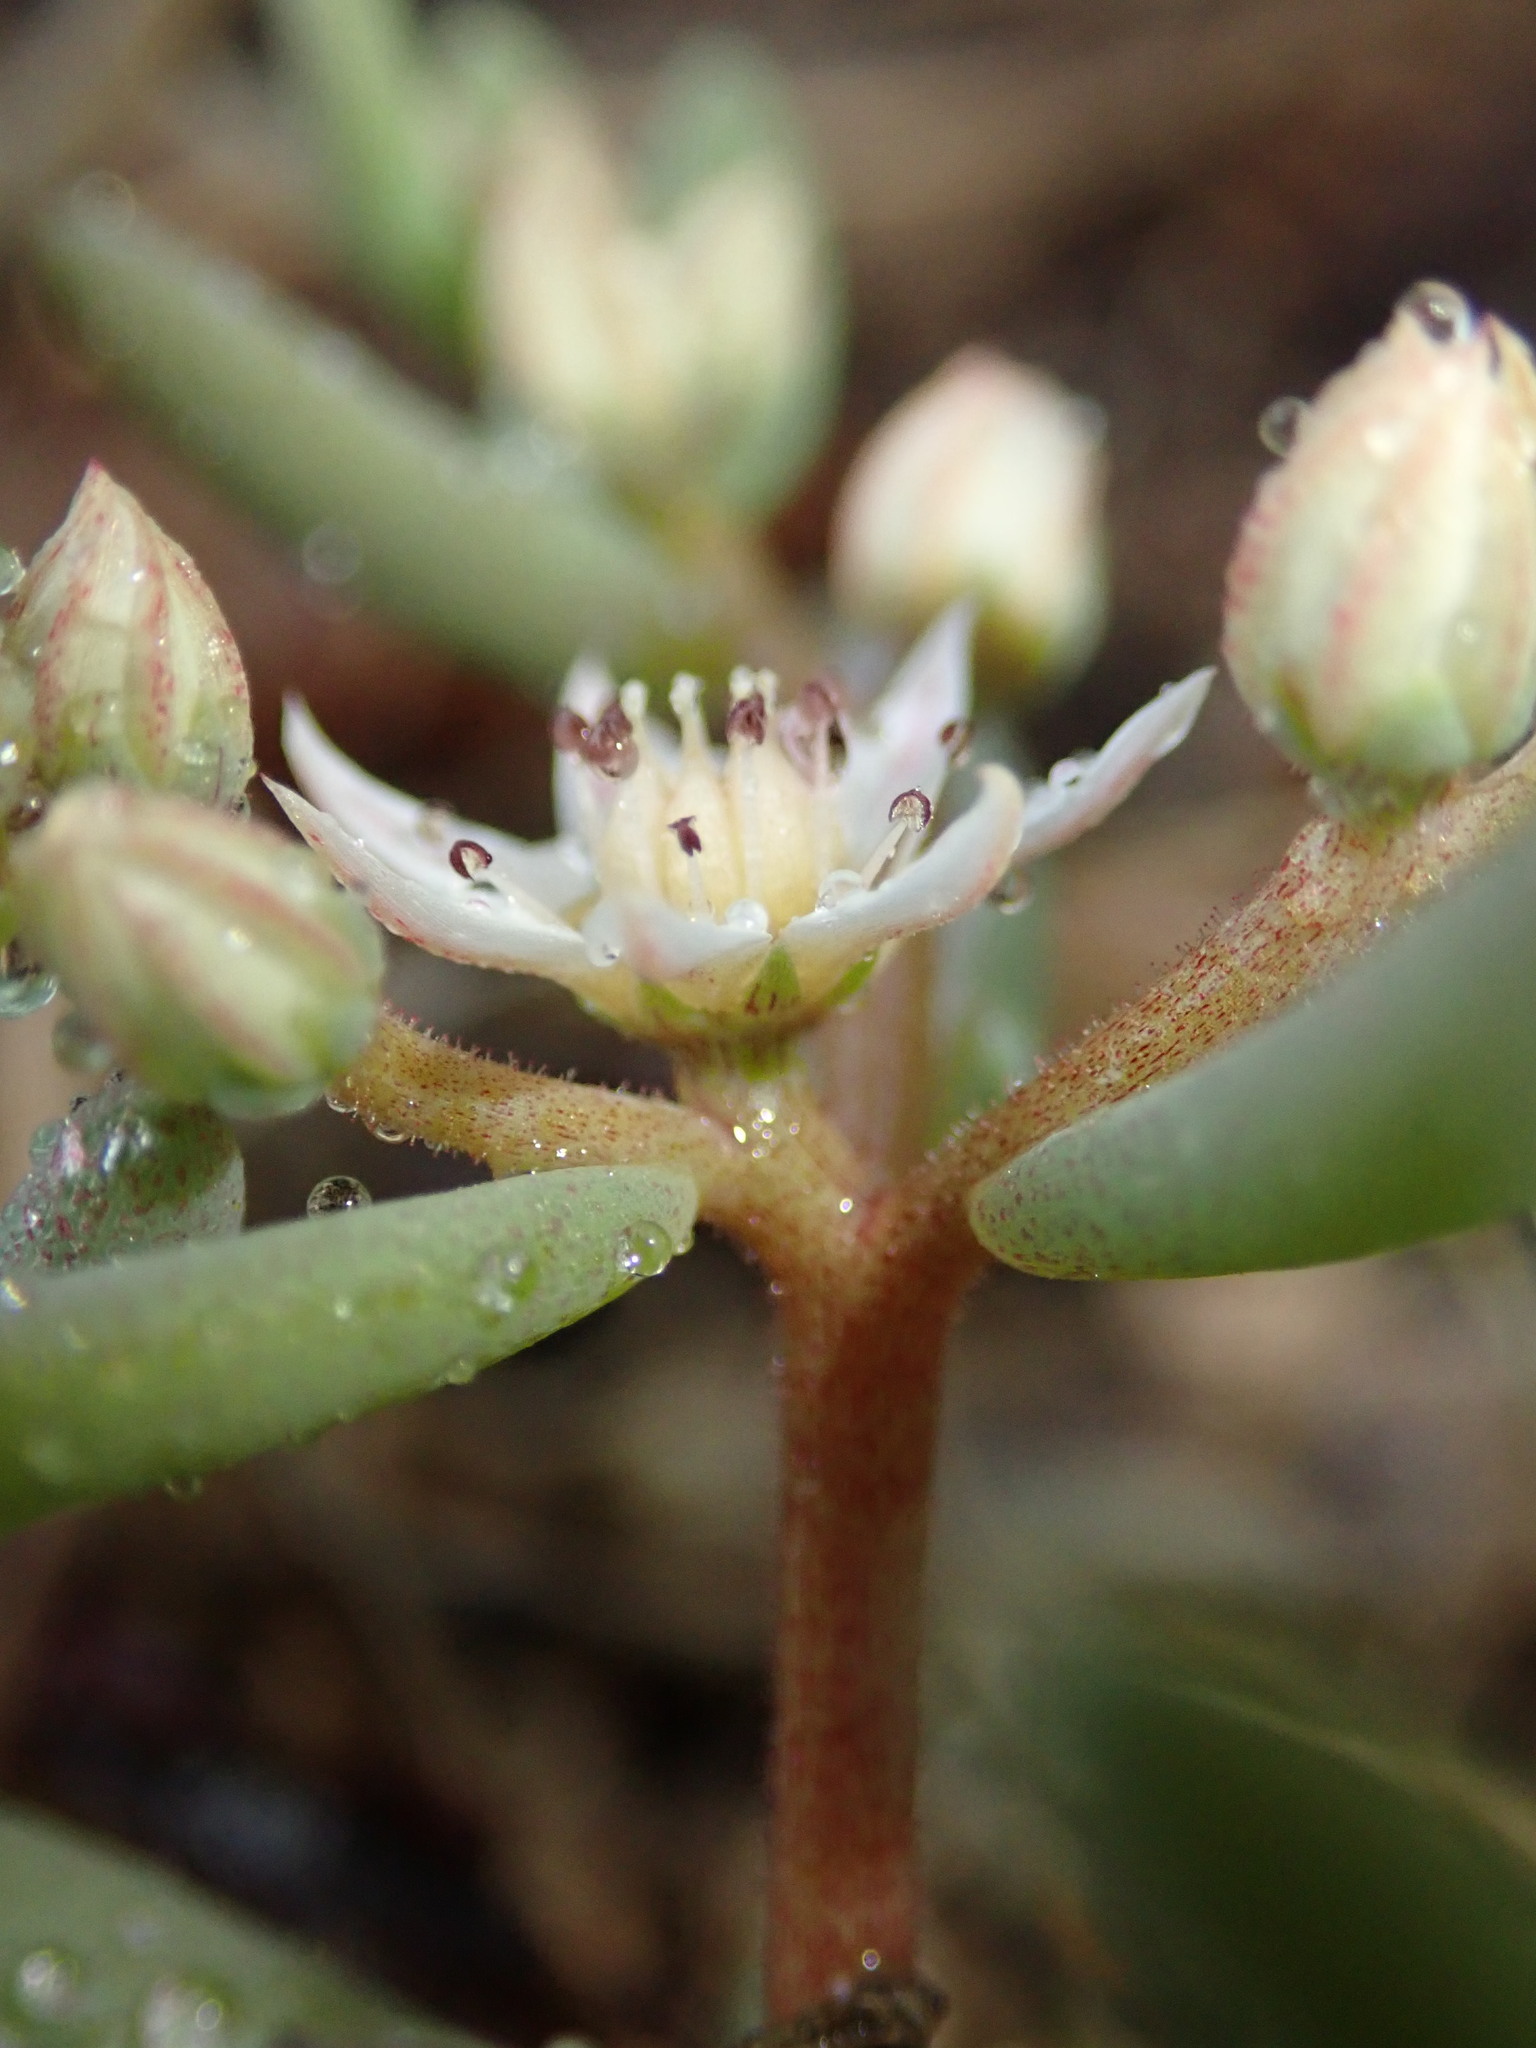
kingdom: Plantae
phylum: Tracheophyta
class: Magnoliopsida
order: Saxifragales
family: Crassulaceae
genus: Sedum
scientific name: Sedum hispanicum
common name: Spanish stonecrop
